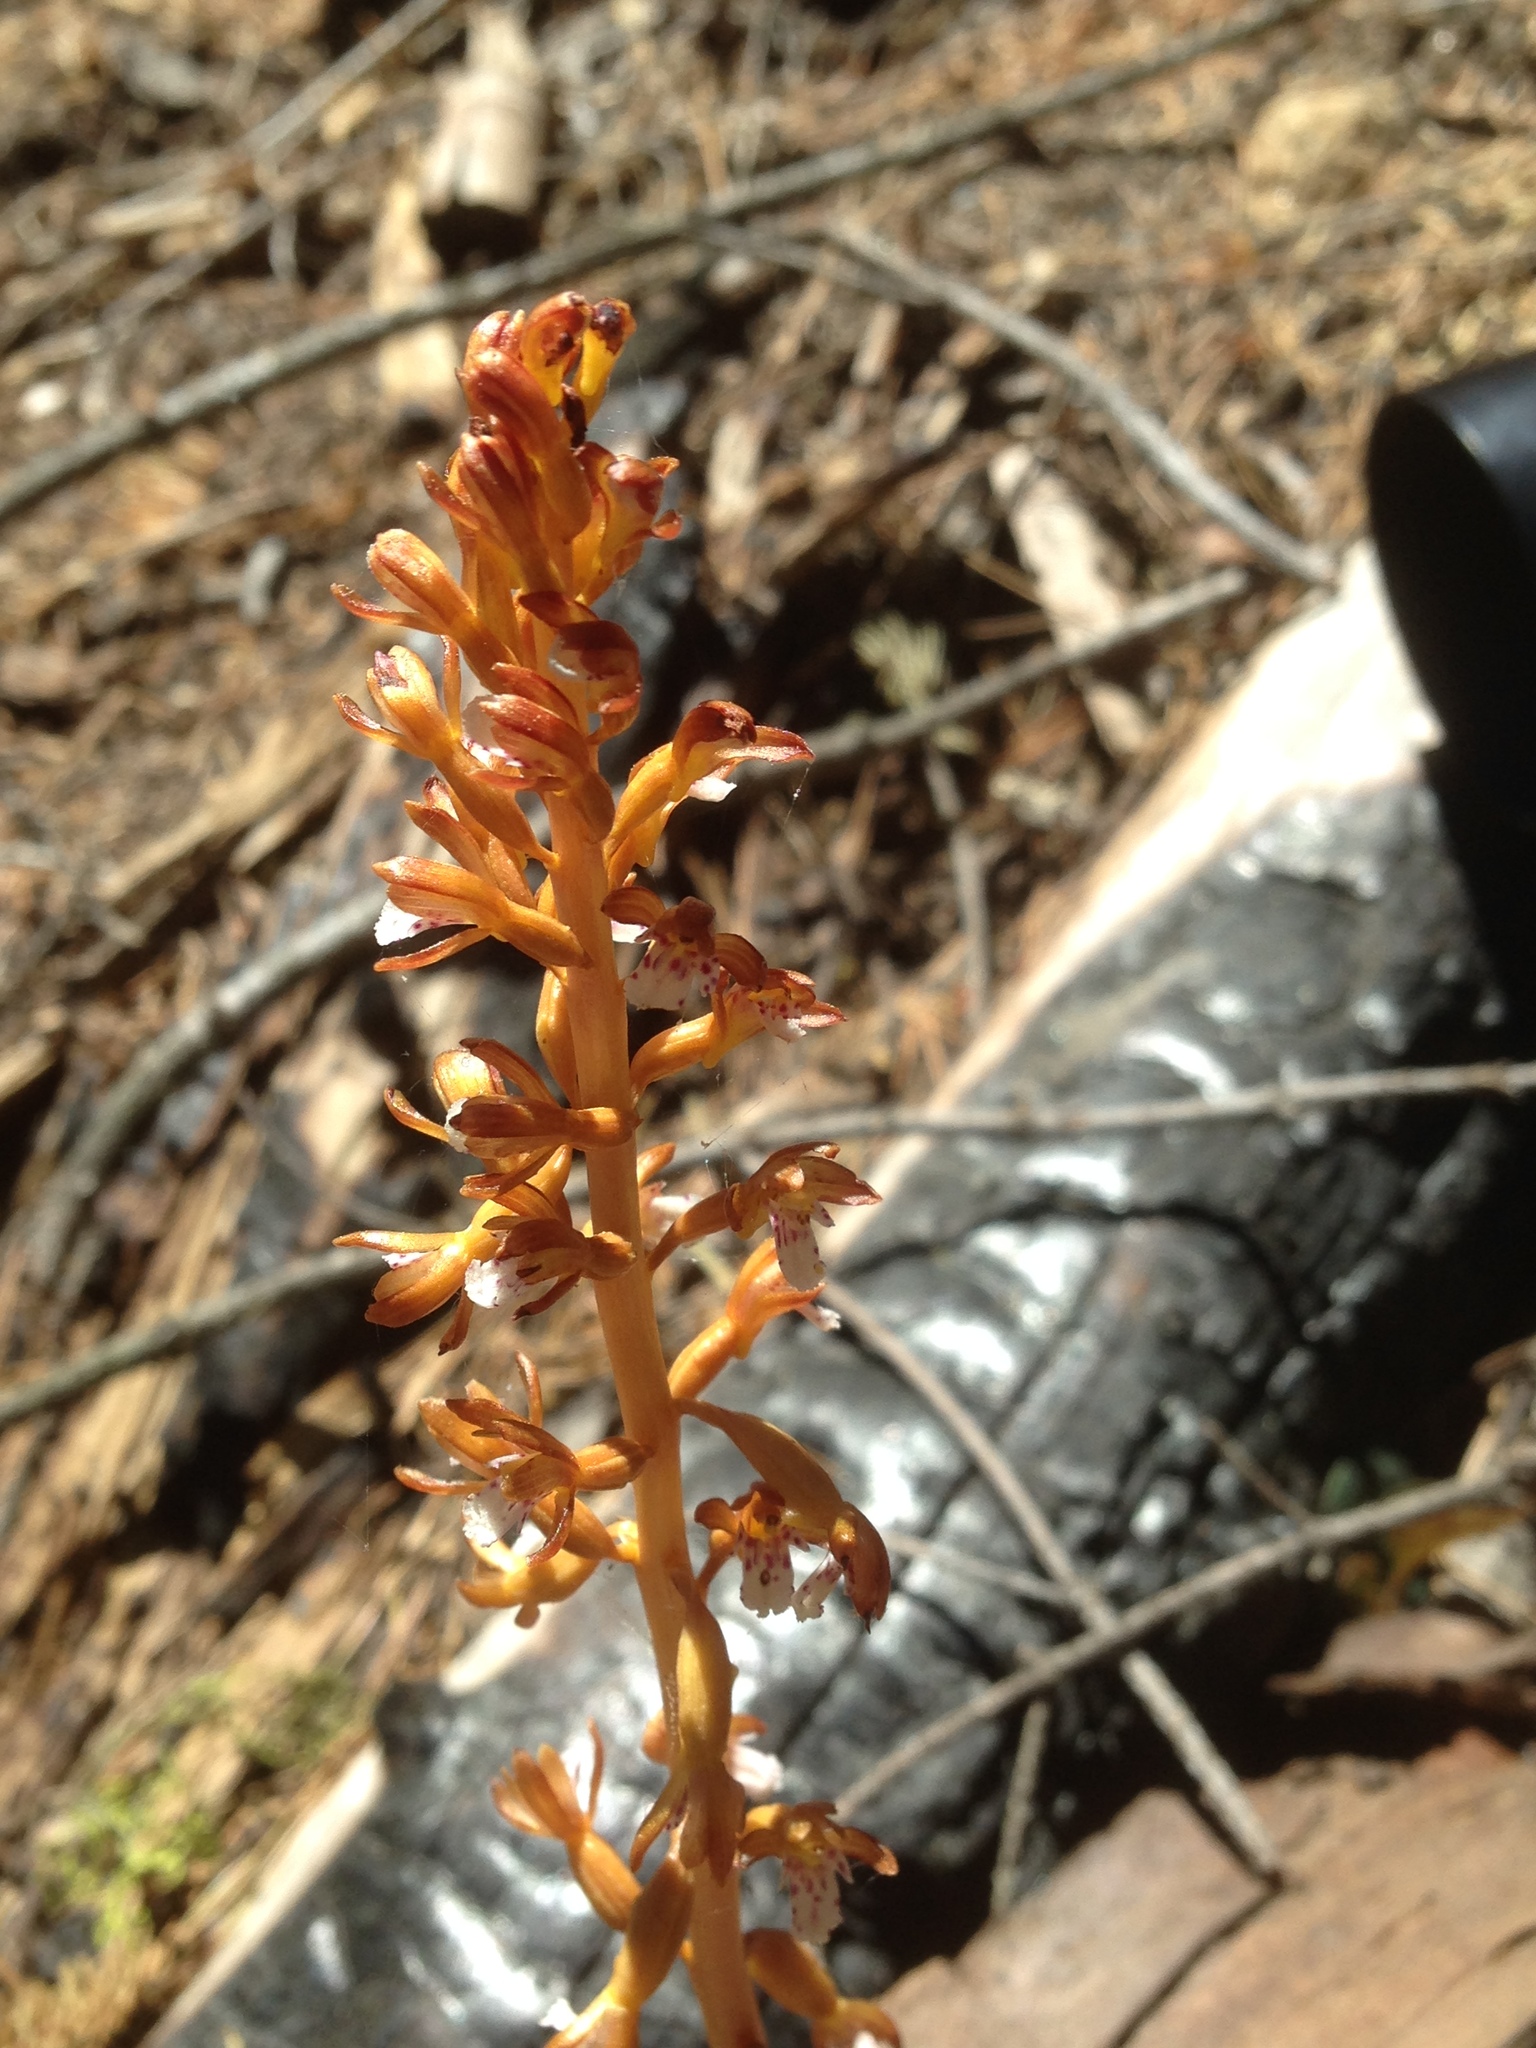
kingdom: Plantae
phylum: Tracheophyta
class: Liliopsida
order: Asparagales
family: Orchidaceae
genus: Corallorhiza
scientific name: Corallorhiza maculata
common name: Spotted coralroot
